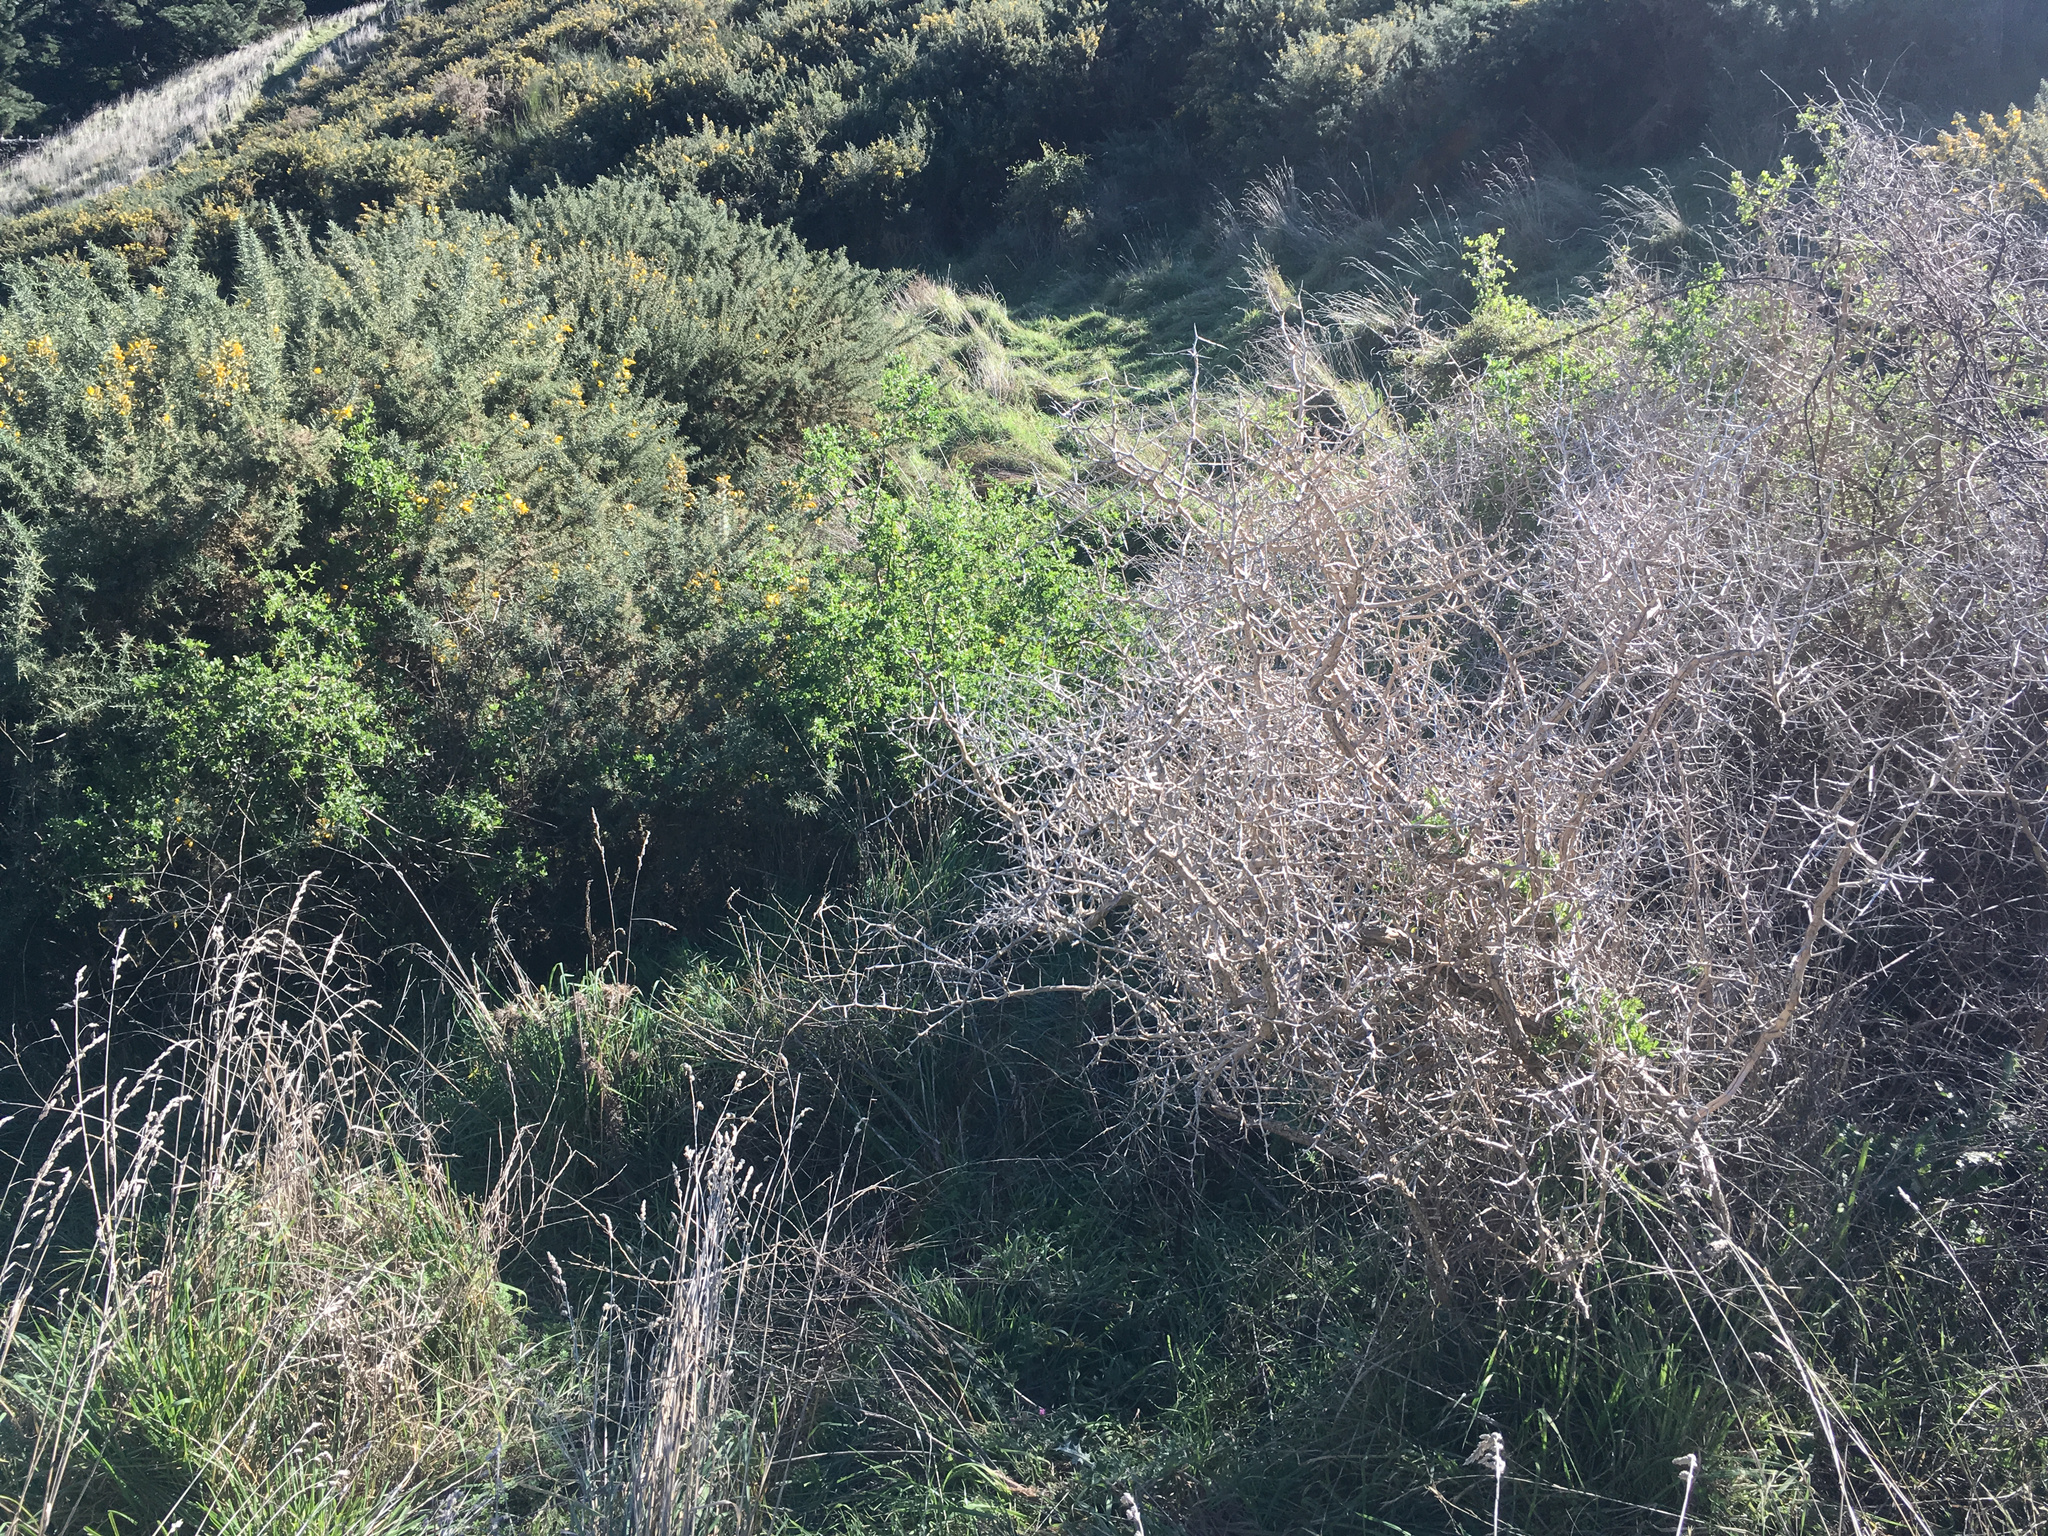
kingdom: Plantae
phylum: Tracheophyta
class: Magnoliopsida
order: Solanales
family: Solanaceae
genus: Lycium
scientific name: Lycium ferocissimum
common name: African boxthorn
